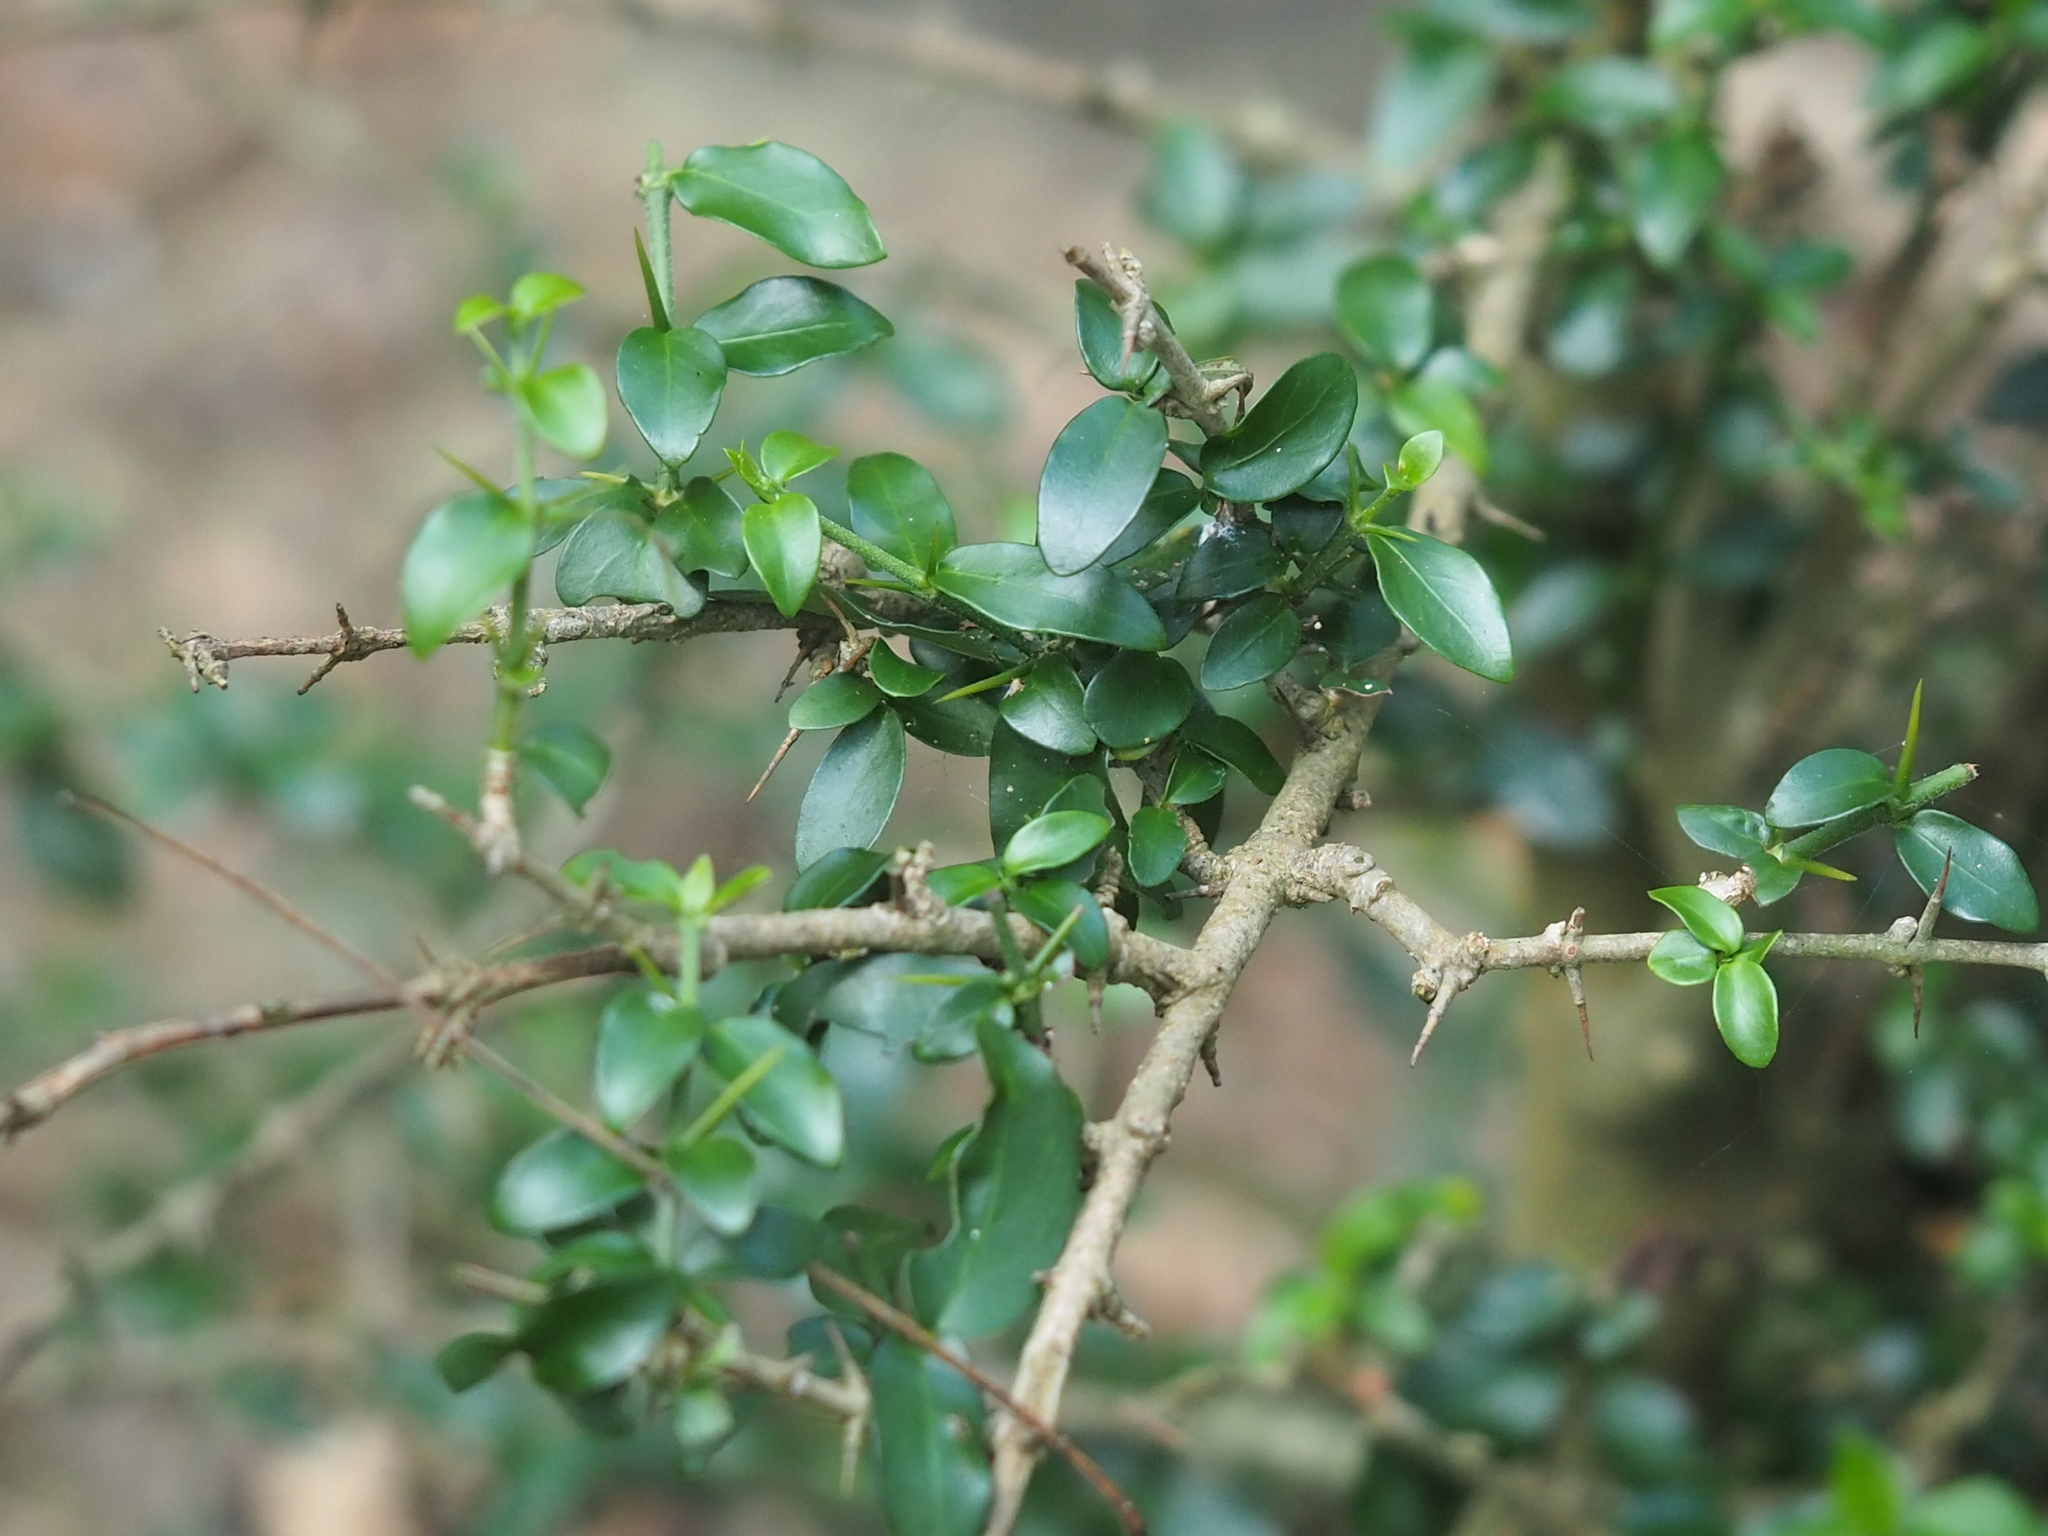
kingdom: Plantae
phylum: Tracheophyta
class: Magnoliopsida
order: Celastrales
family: Celastraceae
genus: Gymnosporia
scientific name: Gymnosporia diversifolia
